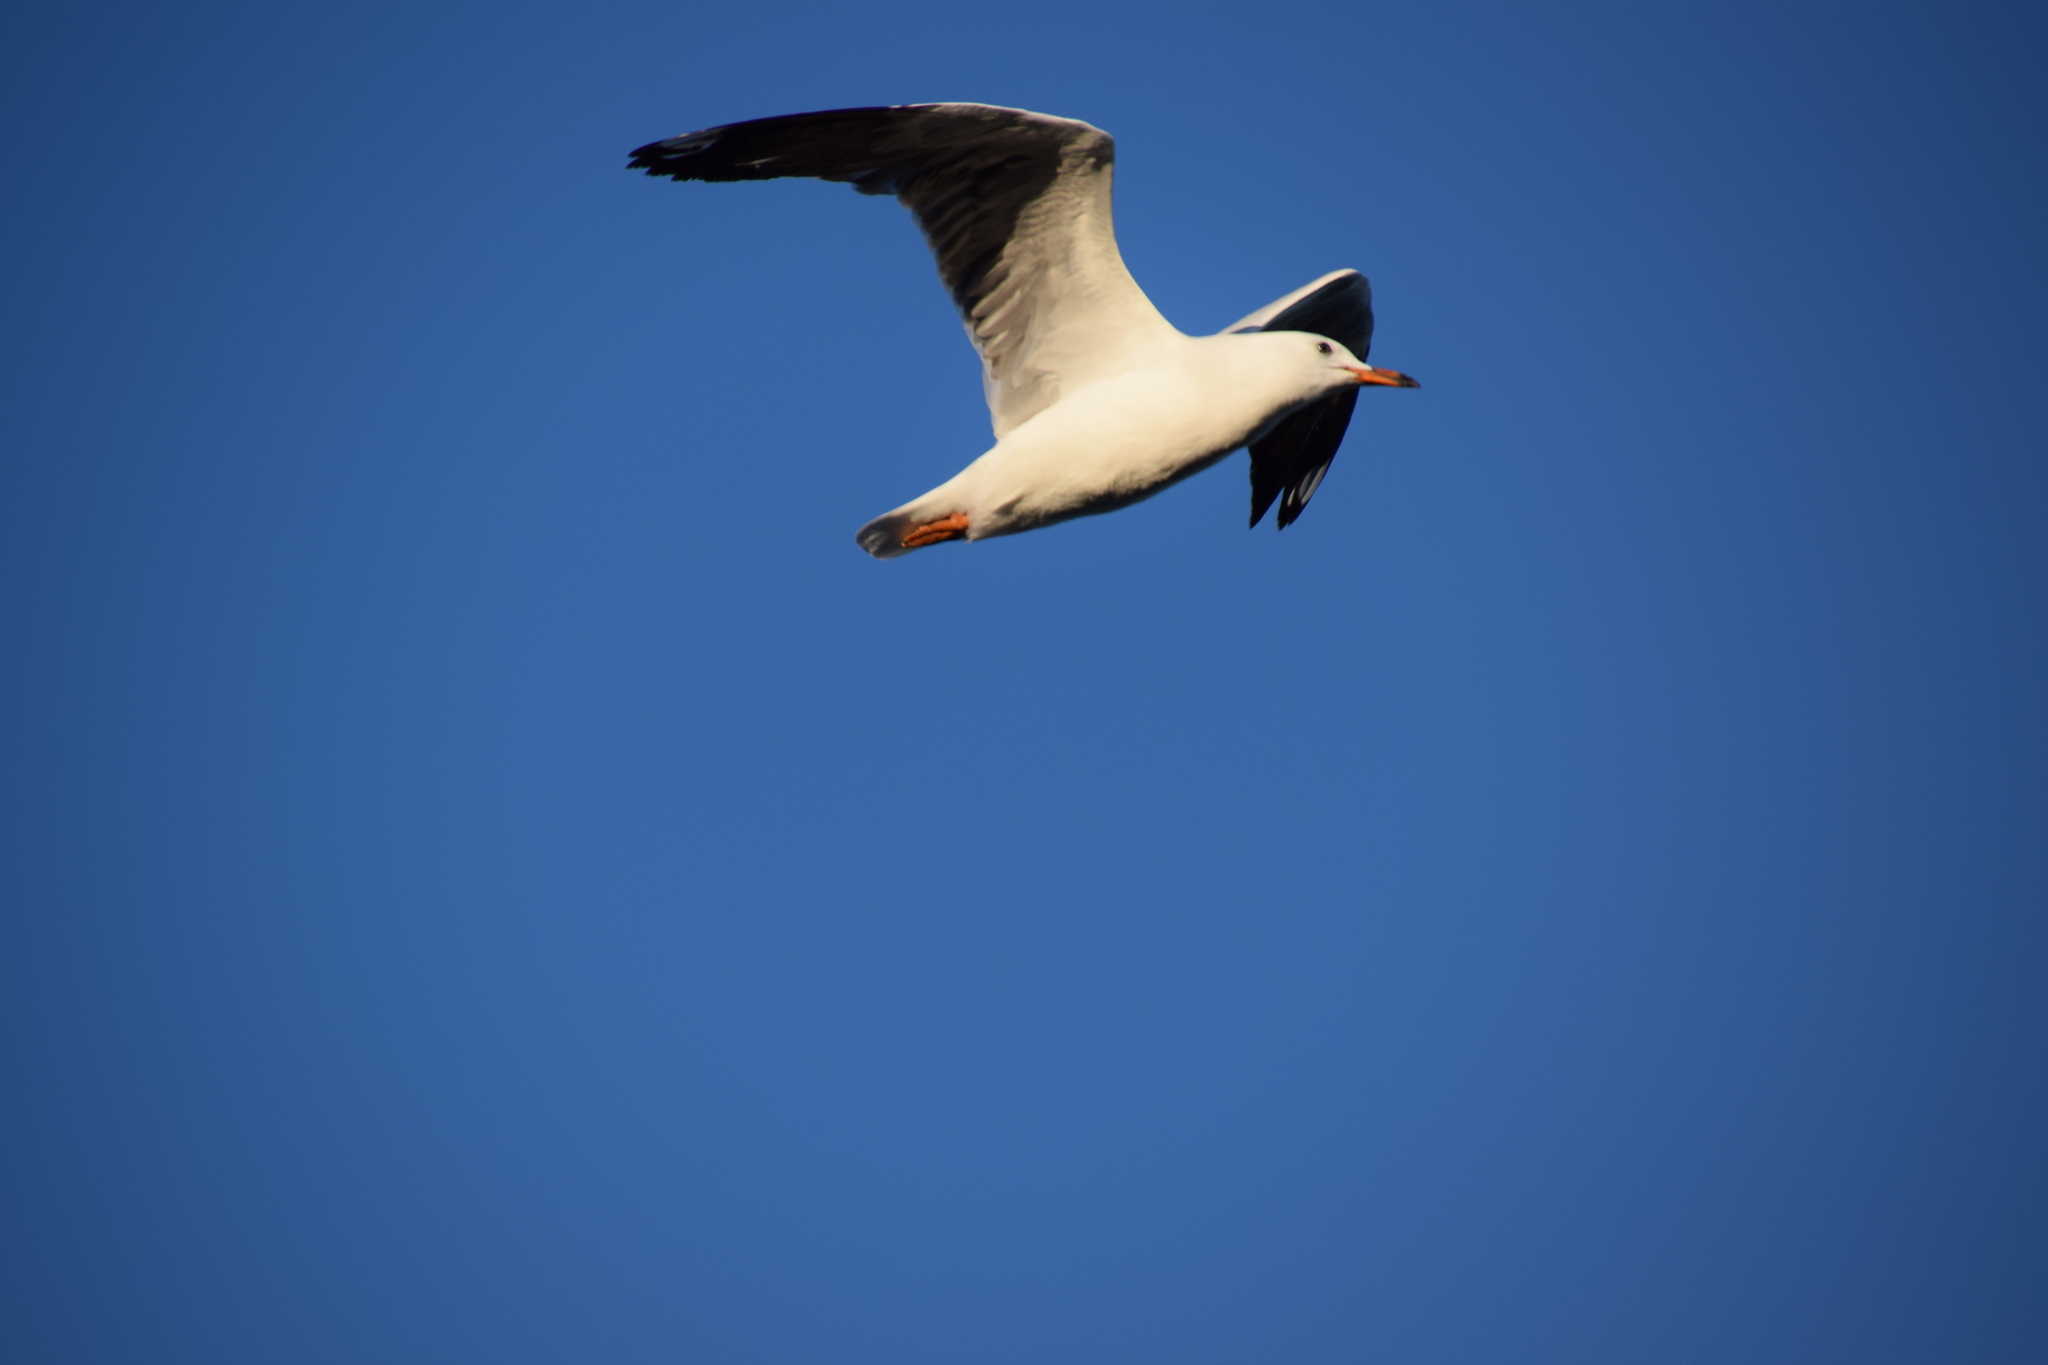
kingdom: Animalia
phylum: Chordata
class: Aves
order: Charadriiformes
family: Laridae
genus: Chroicocephalus
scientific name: Chroicocephalus novaehollandiae
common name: Silver gull
